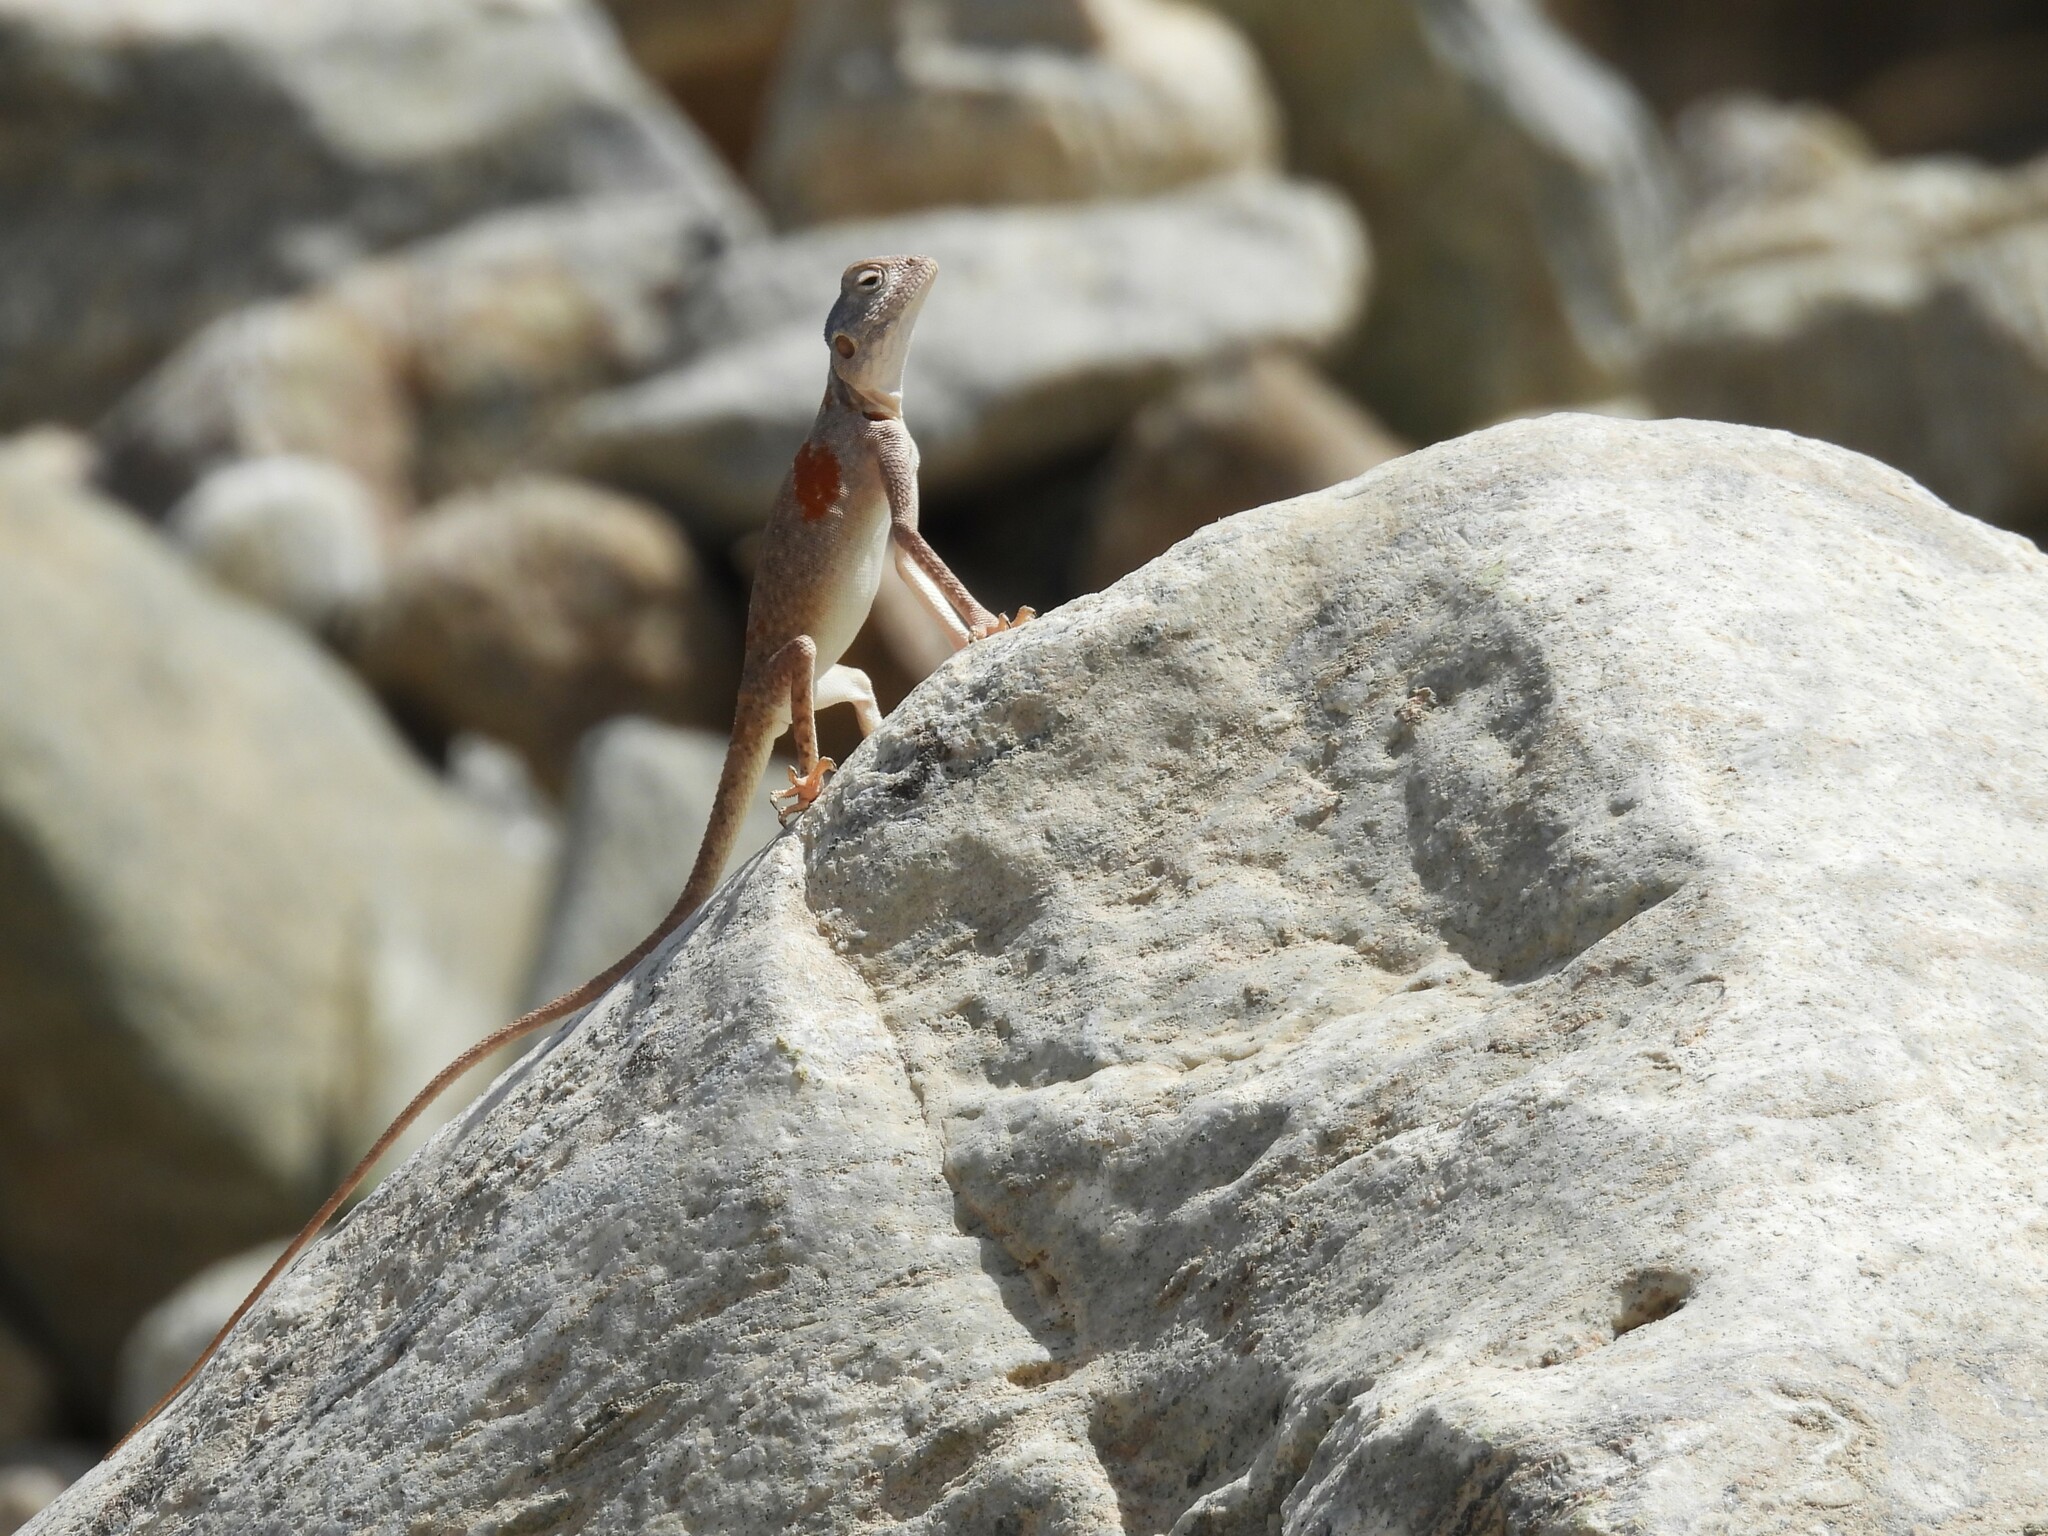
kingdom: Animalia
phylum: Chordata
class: Squamata
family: Agamidae
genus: Pseudotrapelus
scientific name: Pseudotrapelus jensvindumi
